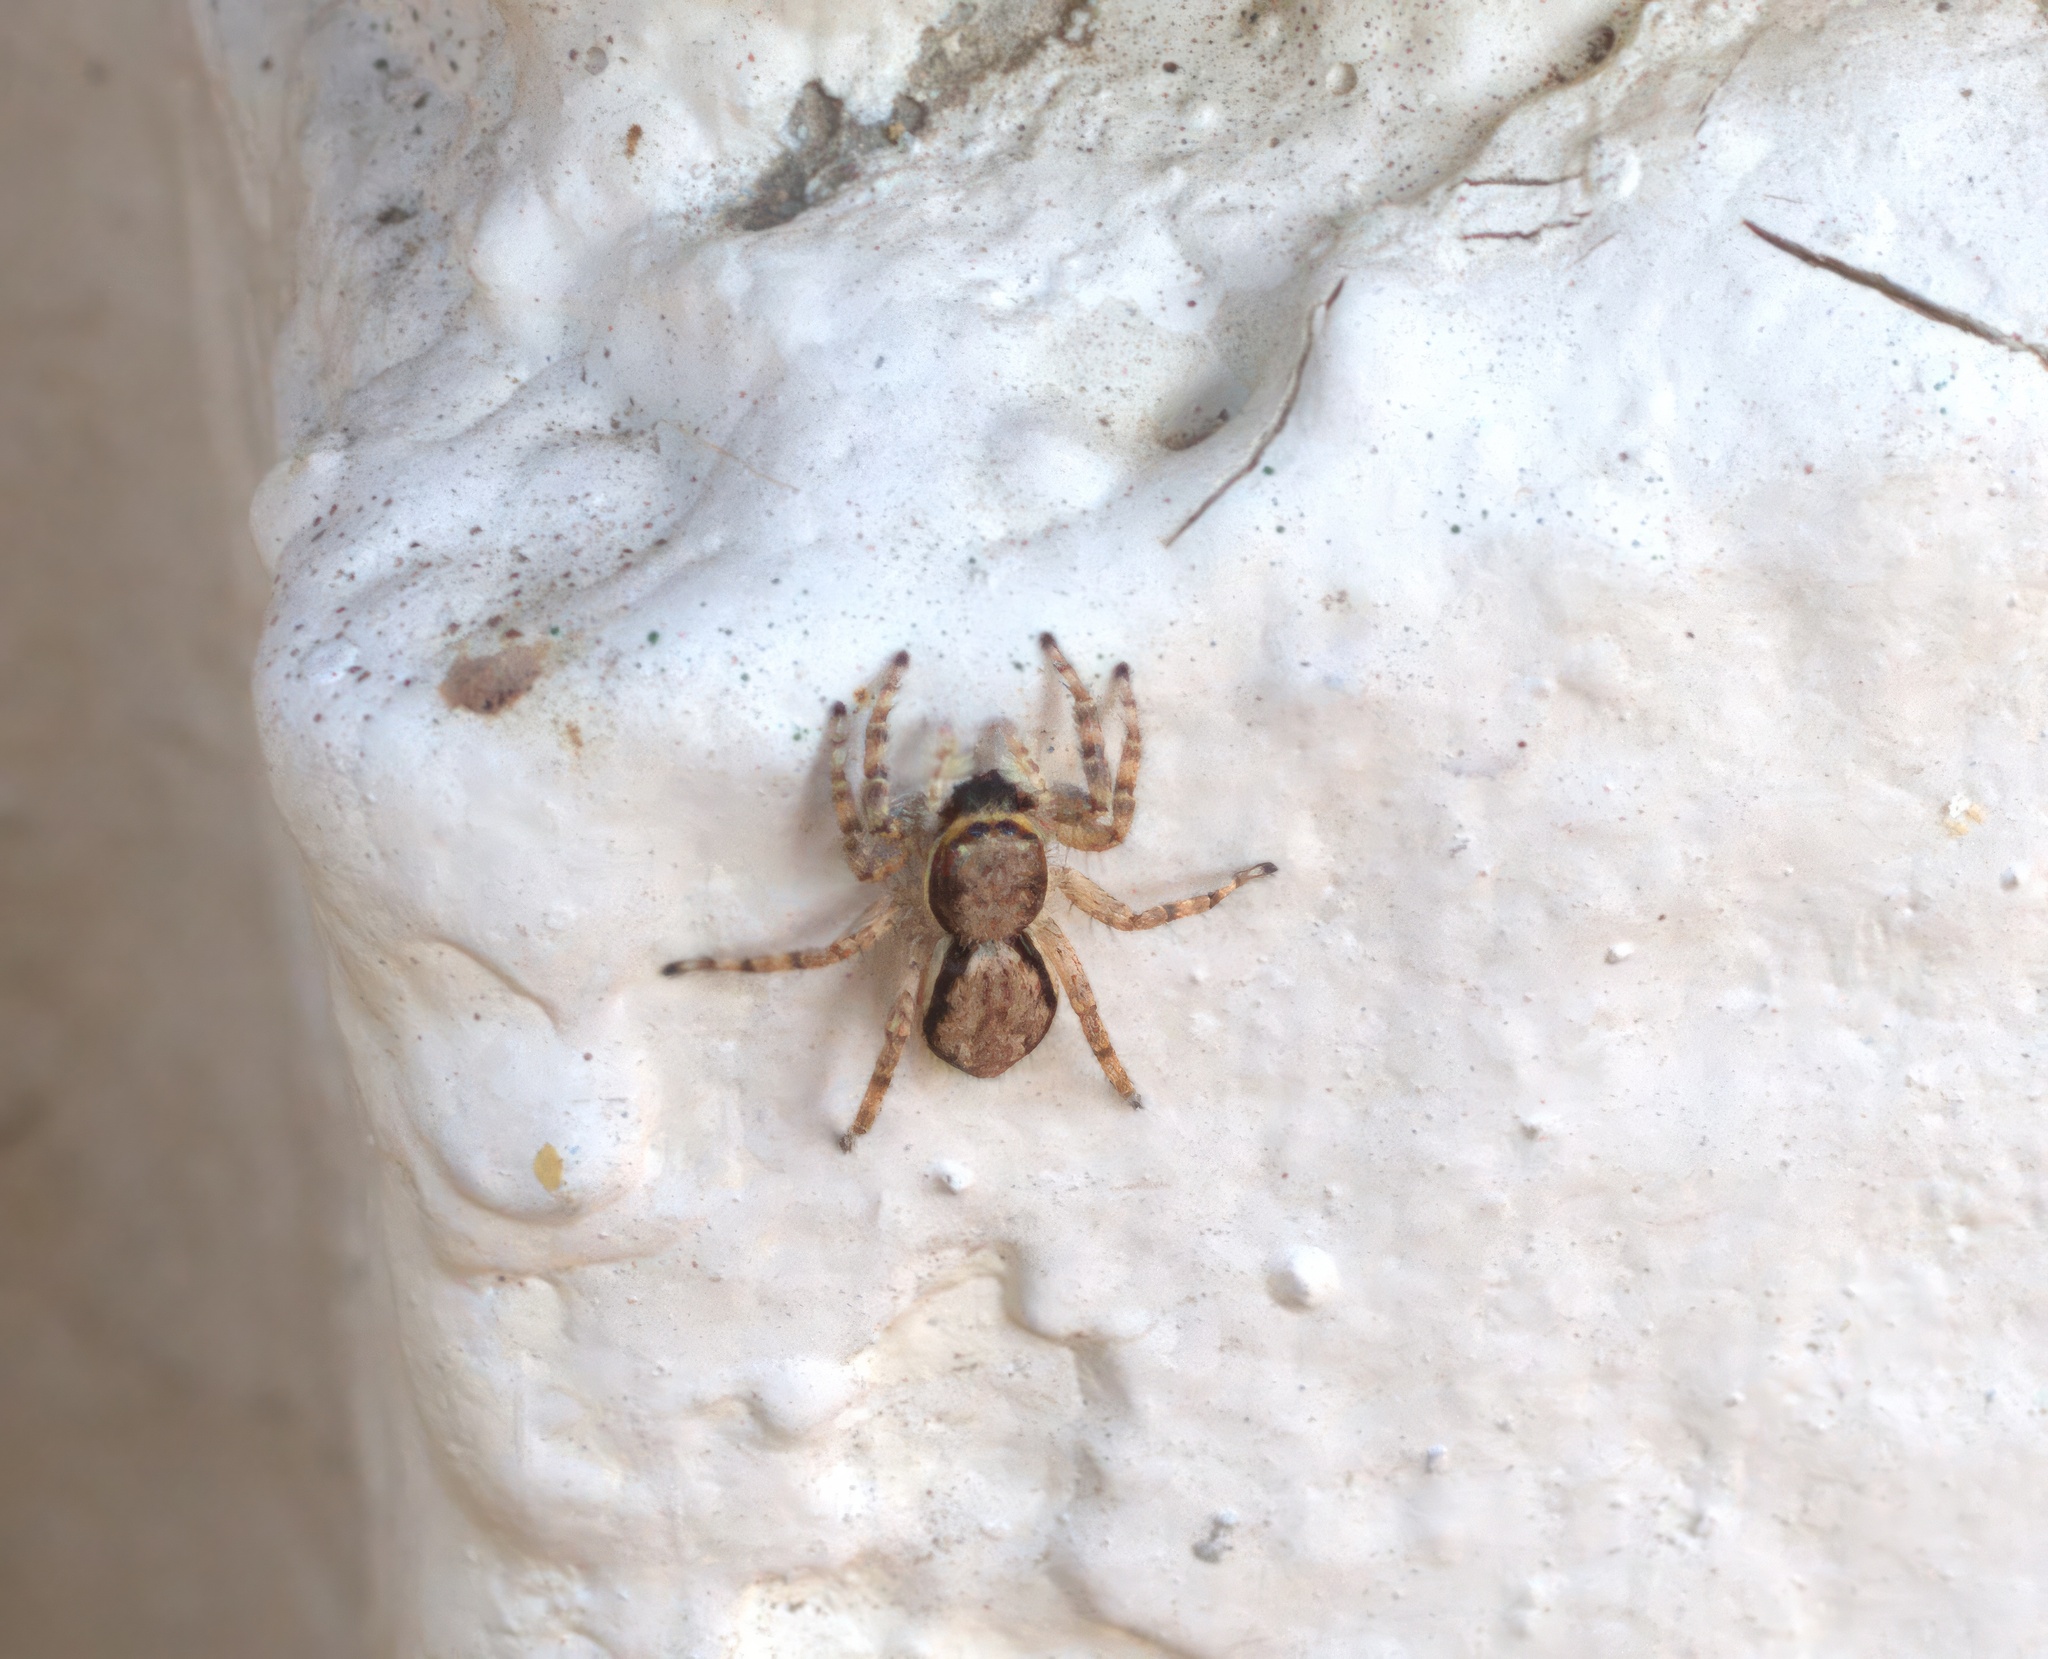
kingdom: Animalia
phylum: Arthropoda
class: Arachnida
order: Araneae
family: Salticidae
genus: Menemerus
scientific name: Menemerus bivittatus
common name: Gray wall jumper
